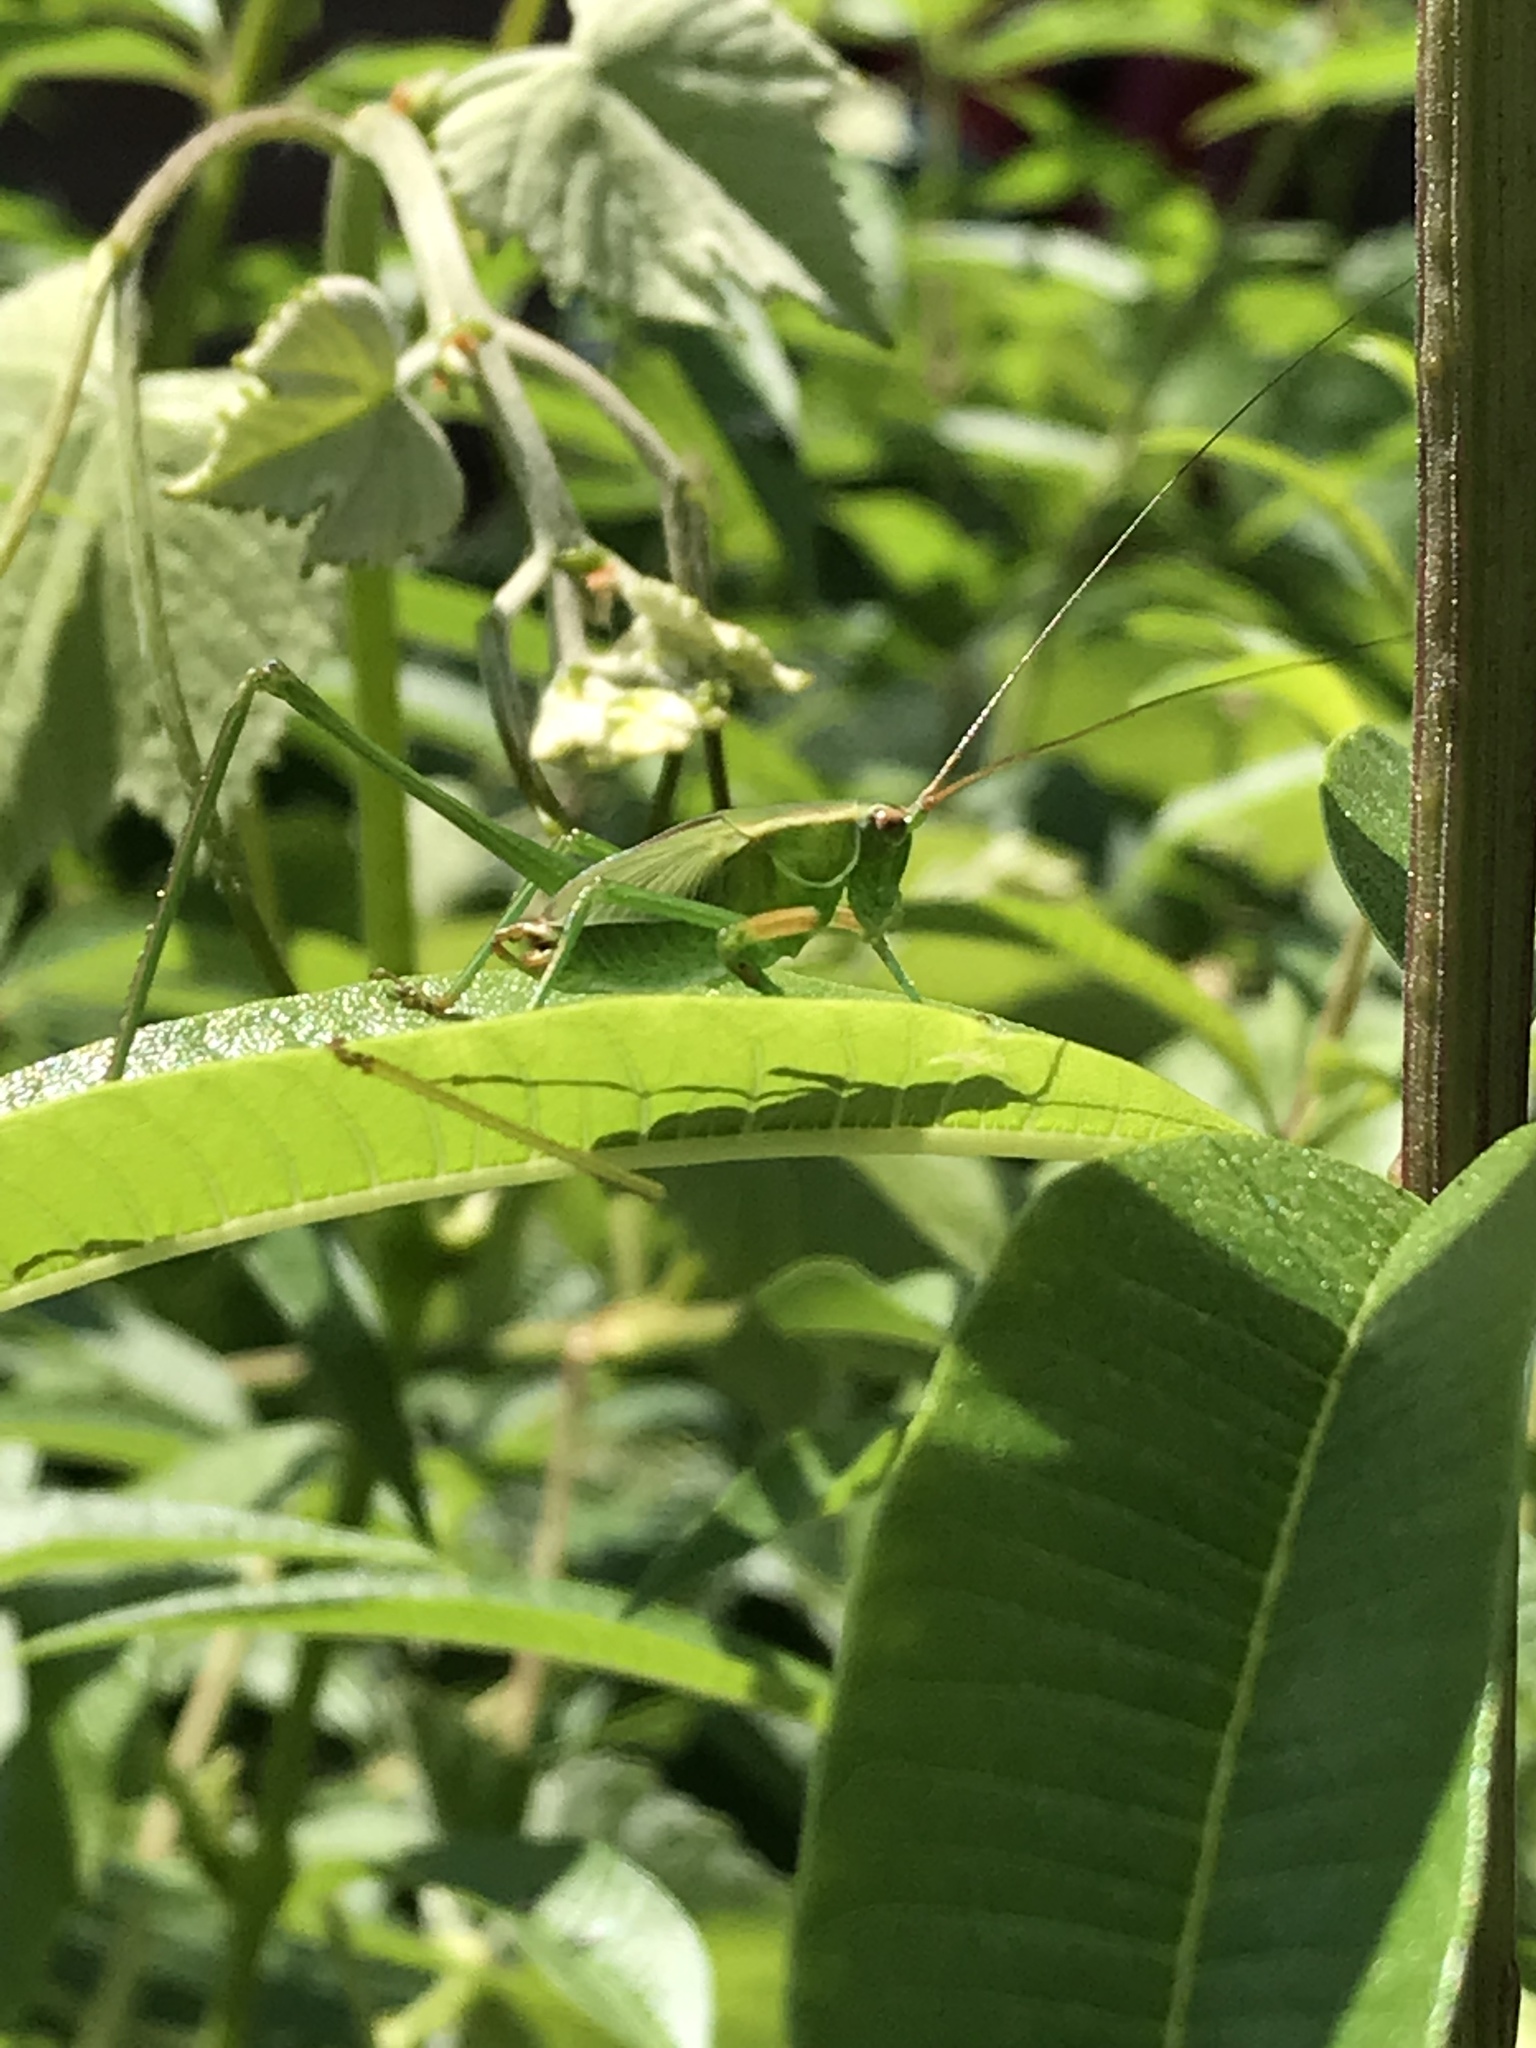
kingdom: Animalia
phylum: Arthropoda
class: Insecta
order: Orthoptera
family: Tettigoniidae
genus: Scudderia
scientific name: Scudderia
